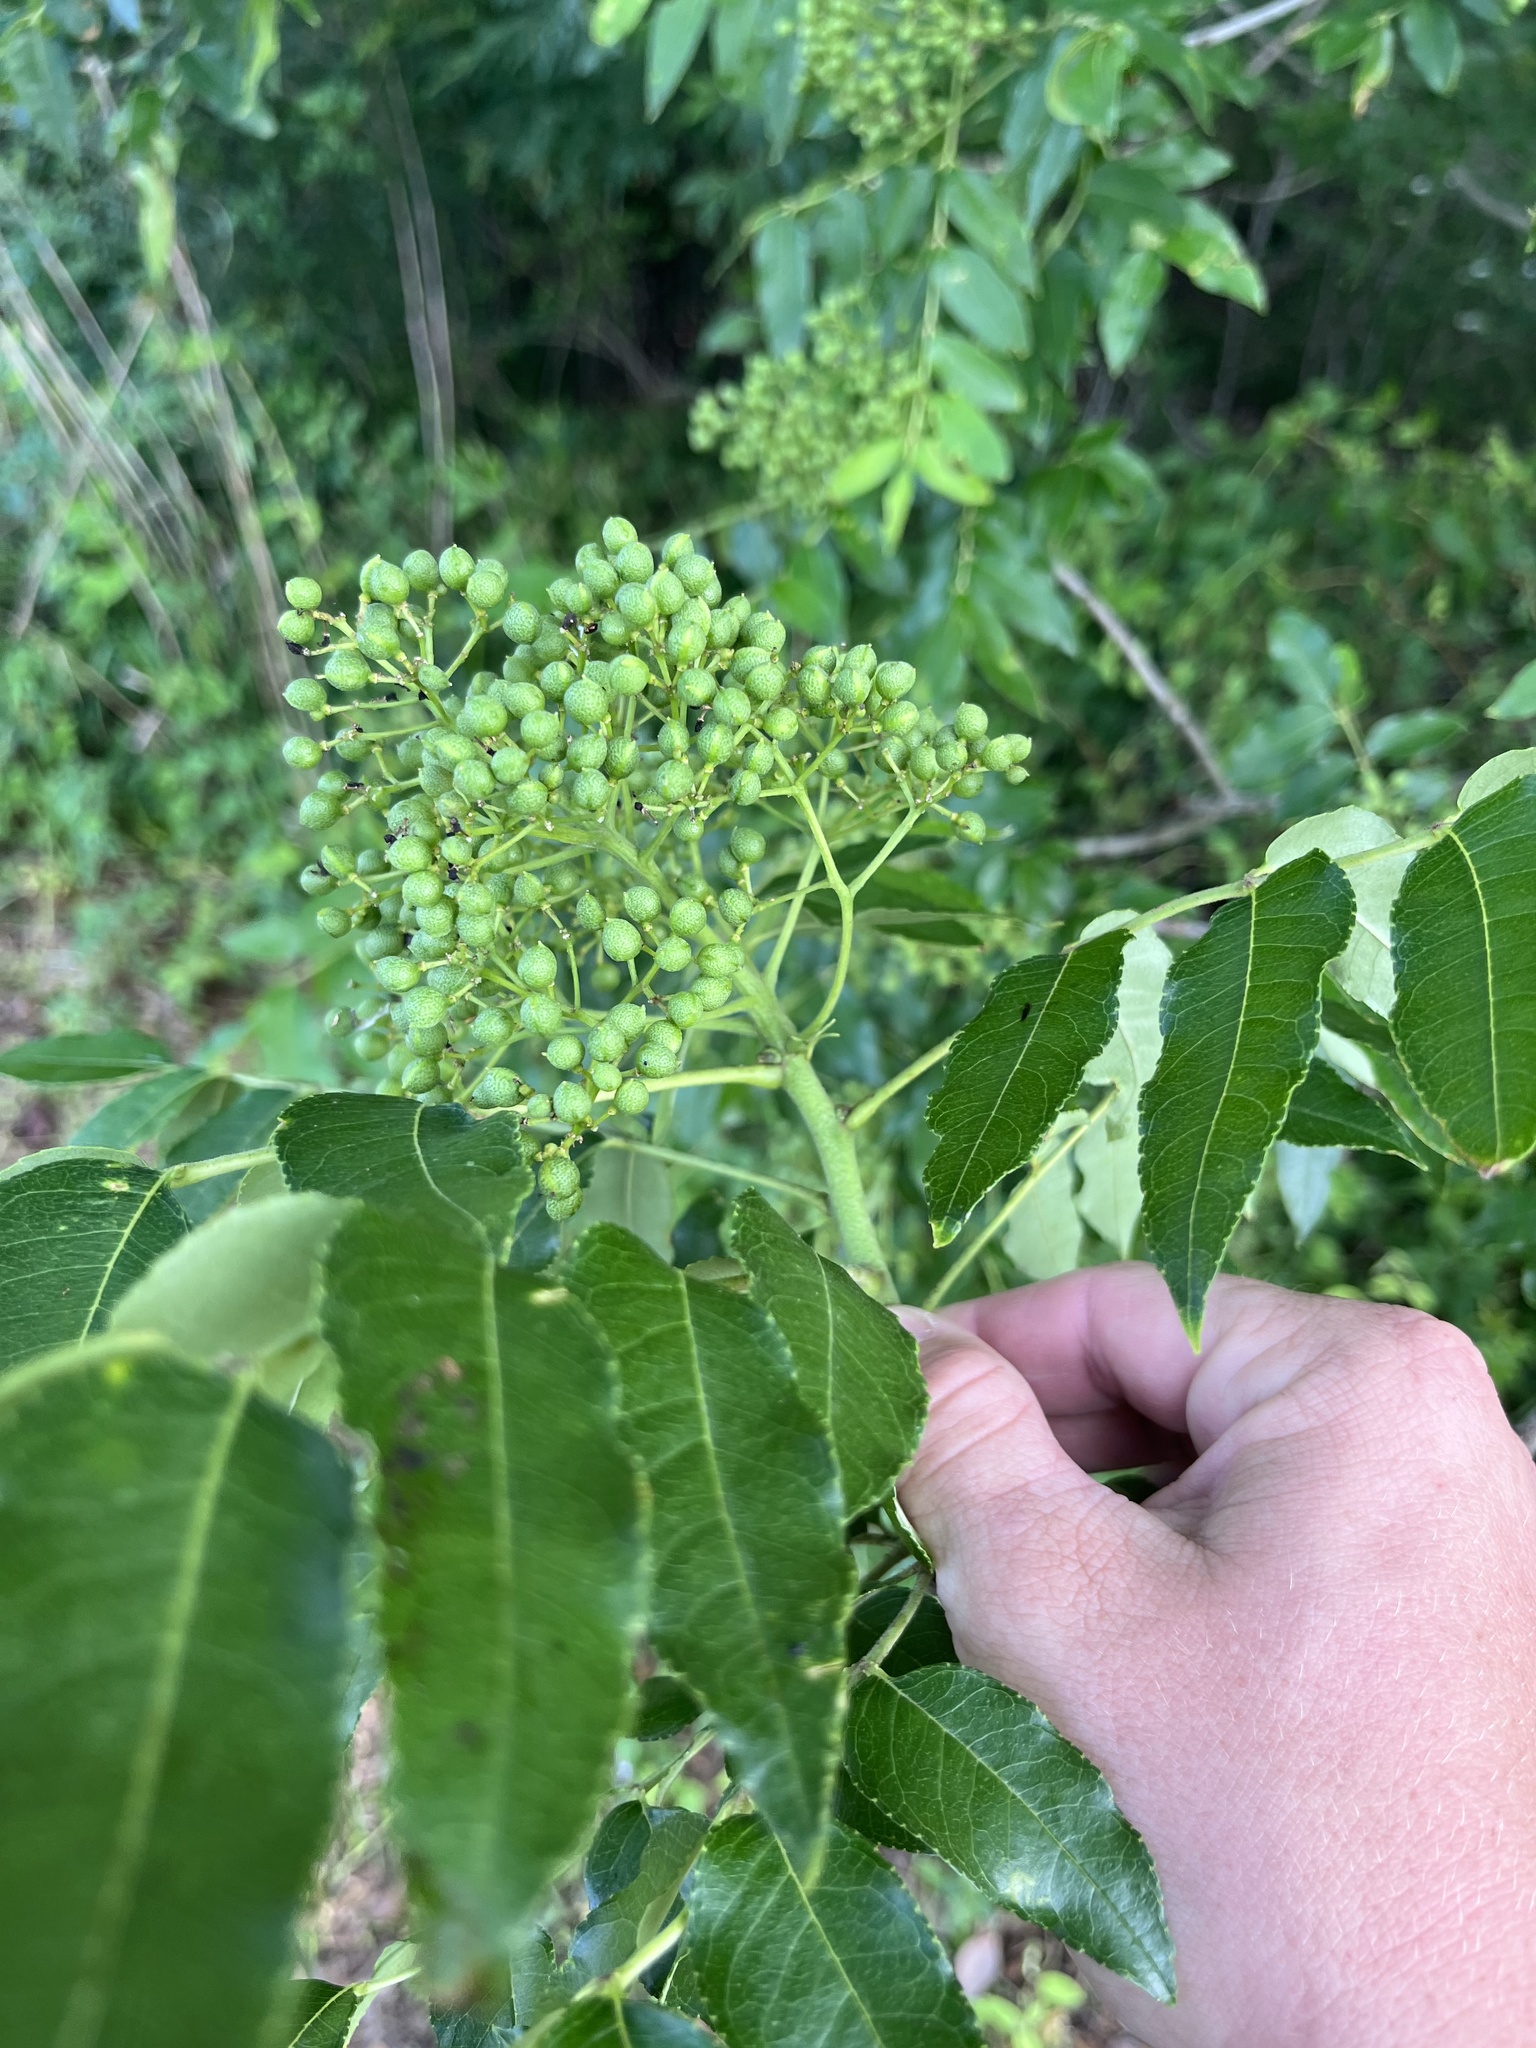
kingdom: Plantae
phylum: Tracheophyta
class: Magnoliopsida
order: Sapindales
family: Rutaceae
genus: Zanthoxylum
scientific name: Zanthoxylum clava-herculis
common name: Hercules'-club
